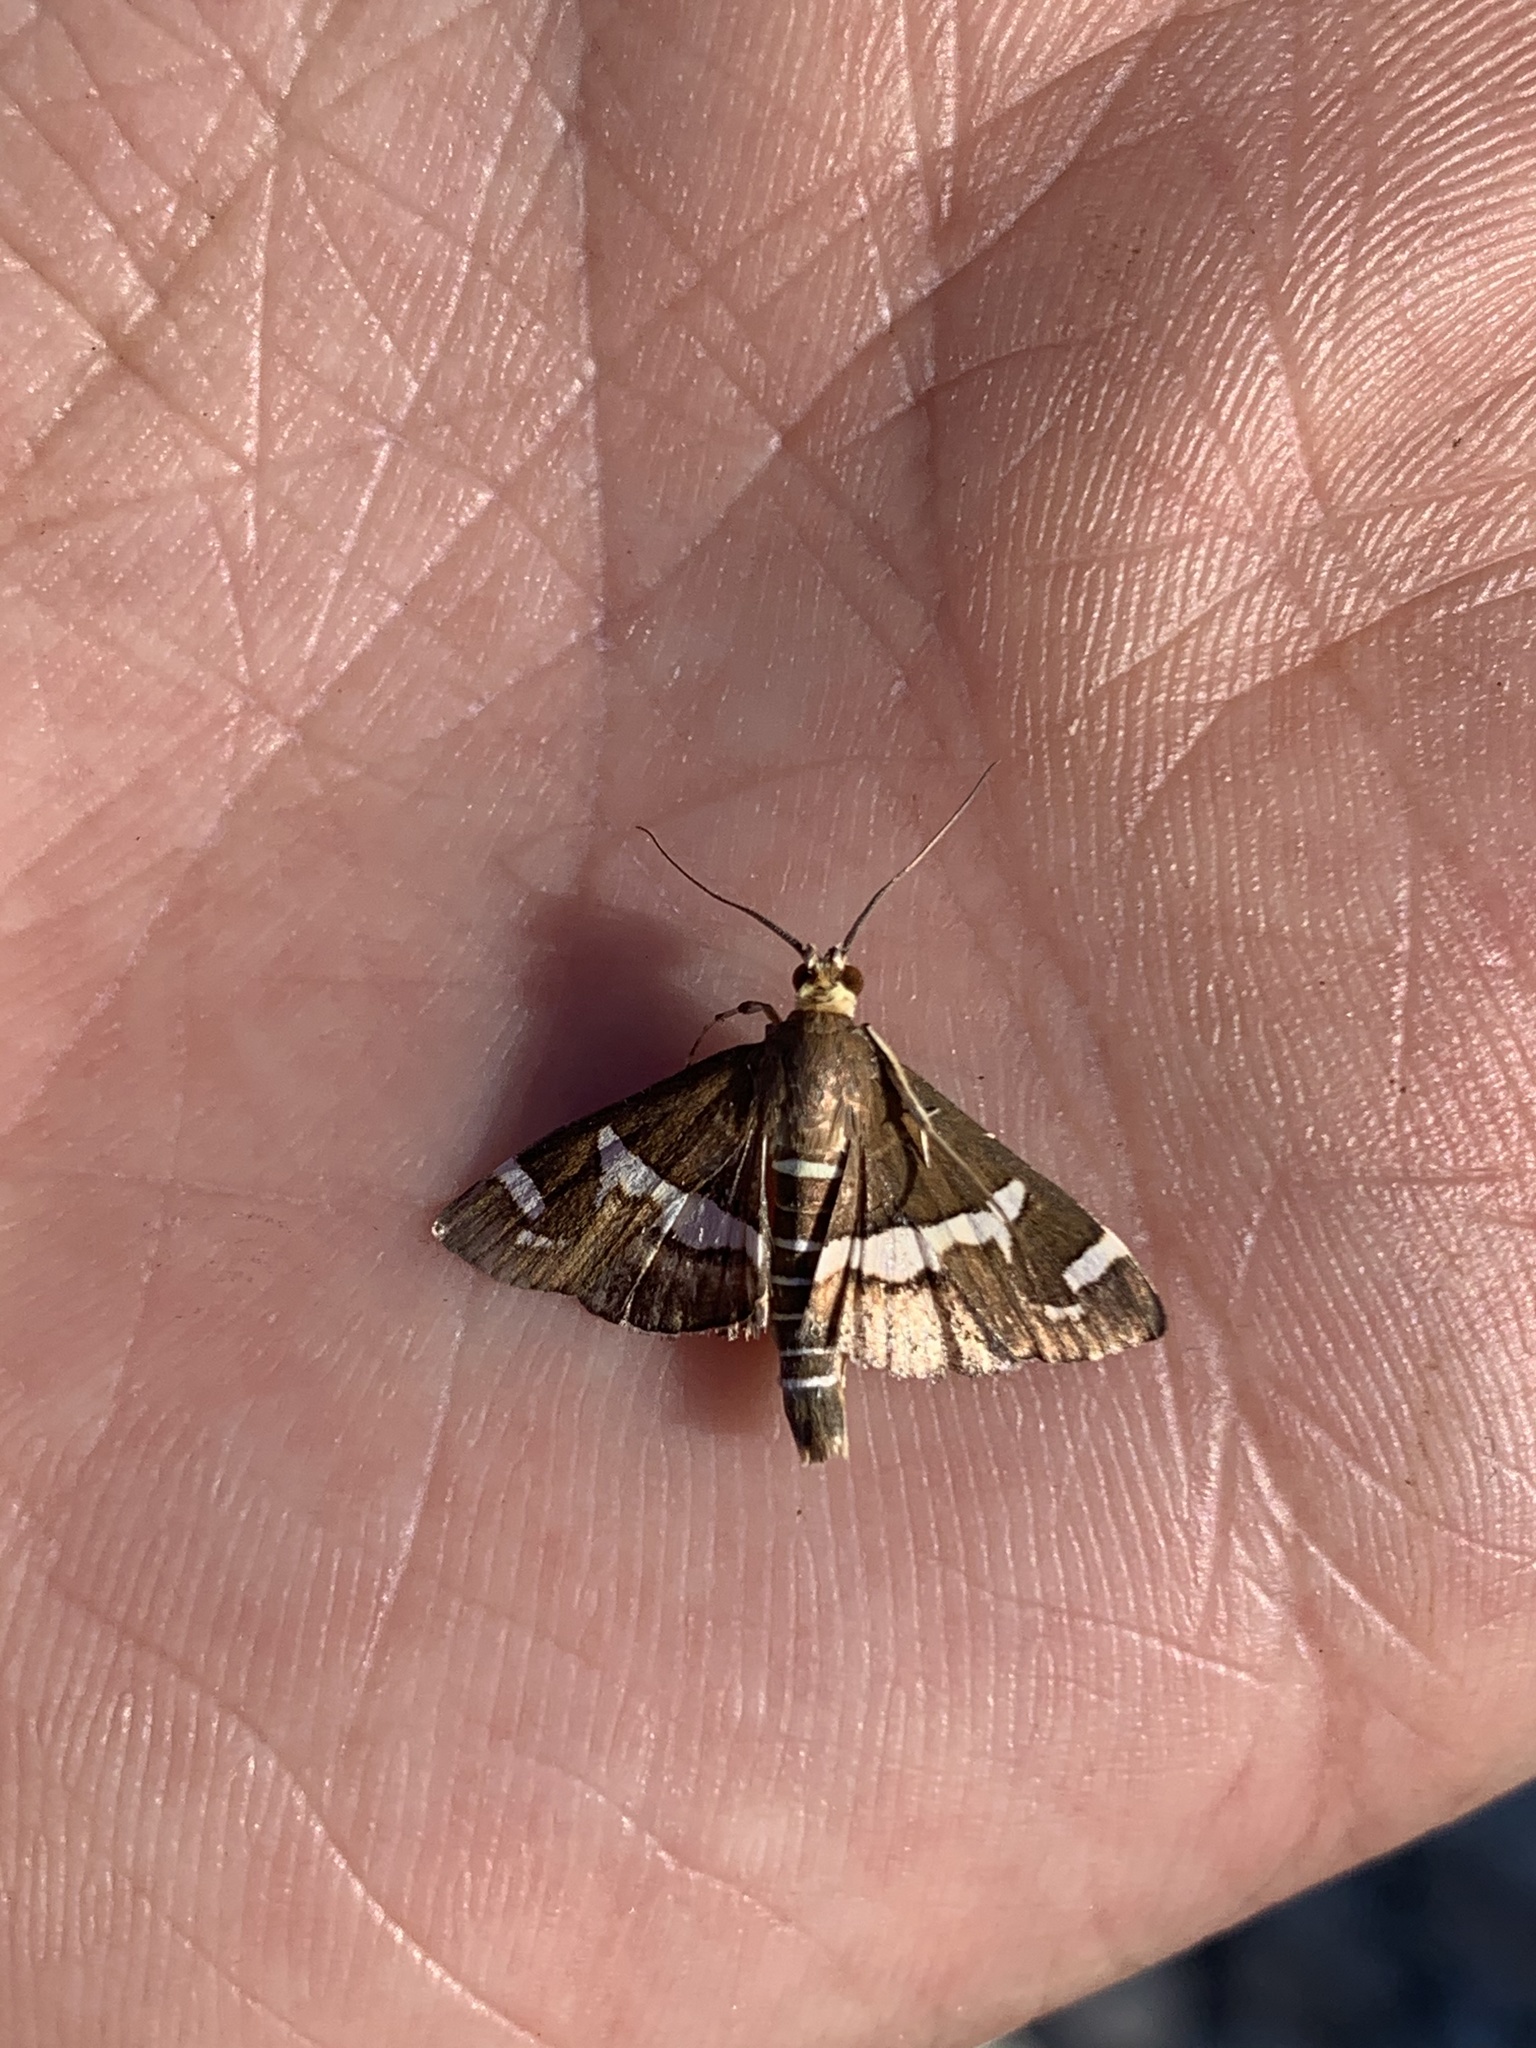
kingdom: Animalia
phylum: Arthropoda
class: Insecta
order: Lepidoptera
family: Crambidae
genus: Spoladea
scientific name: Spoladea recurvalis
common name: Beet webworm moth
